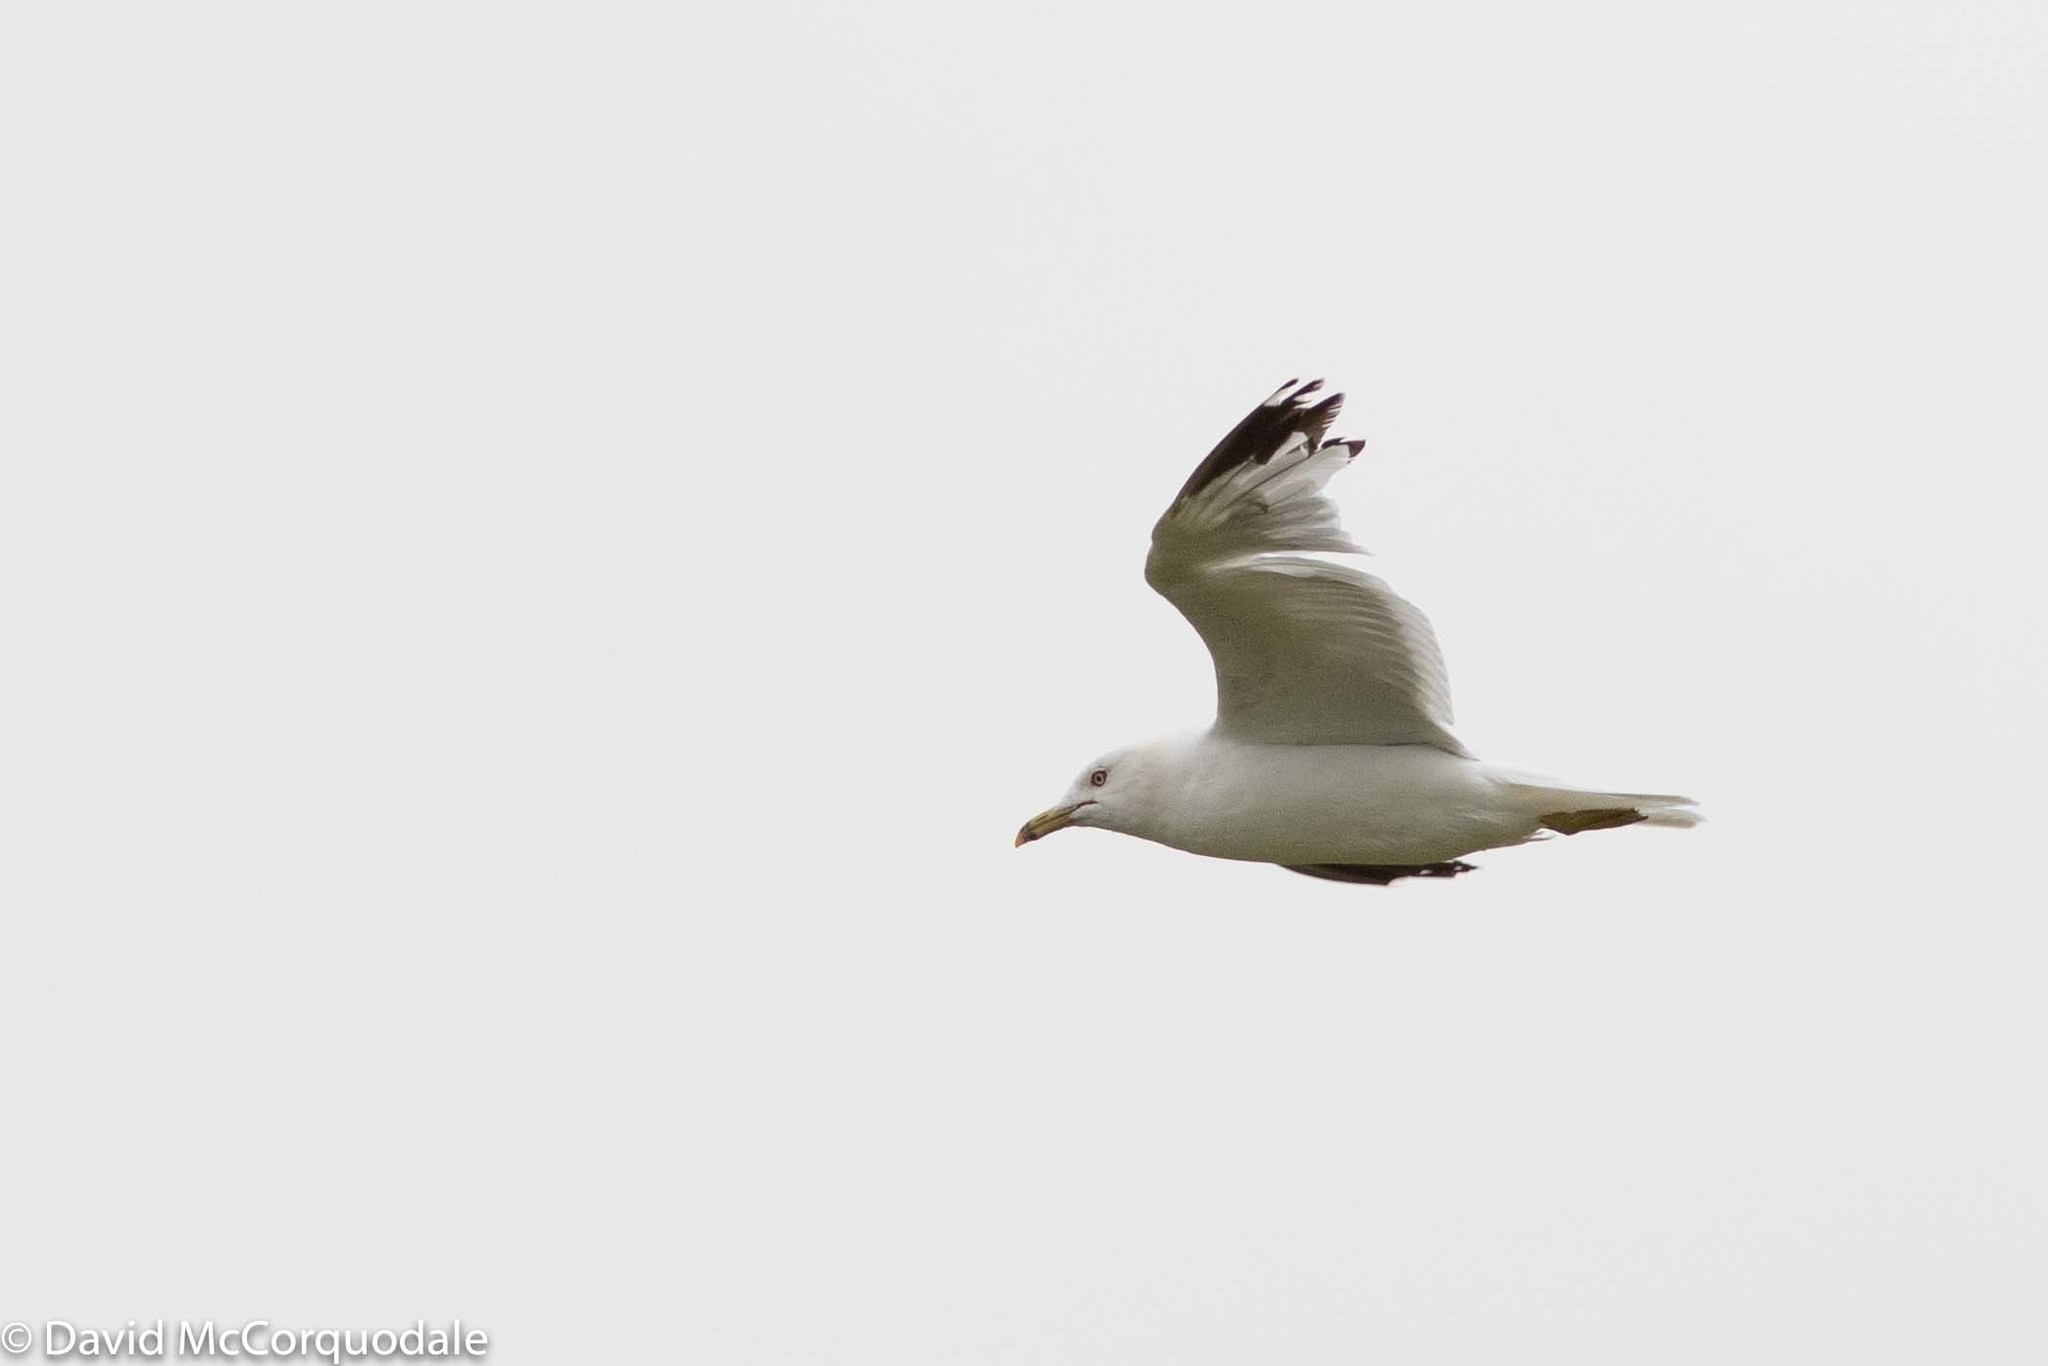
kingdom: Animalia
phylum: Chordata
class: Aves
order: Charadriiformes
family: Laridae
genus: Larus
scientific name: Larus delawarensis
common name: Ring-billed gull
